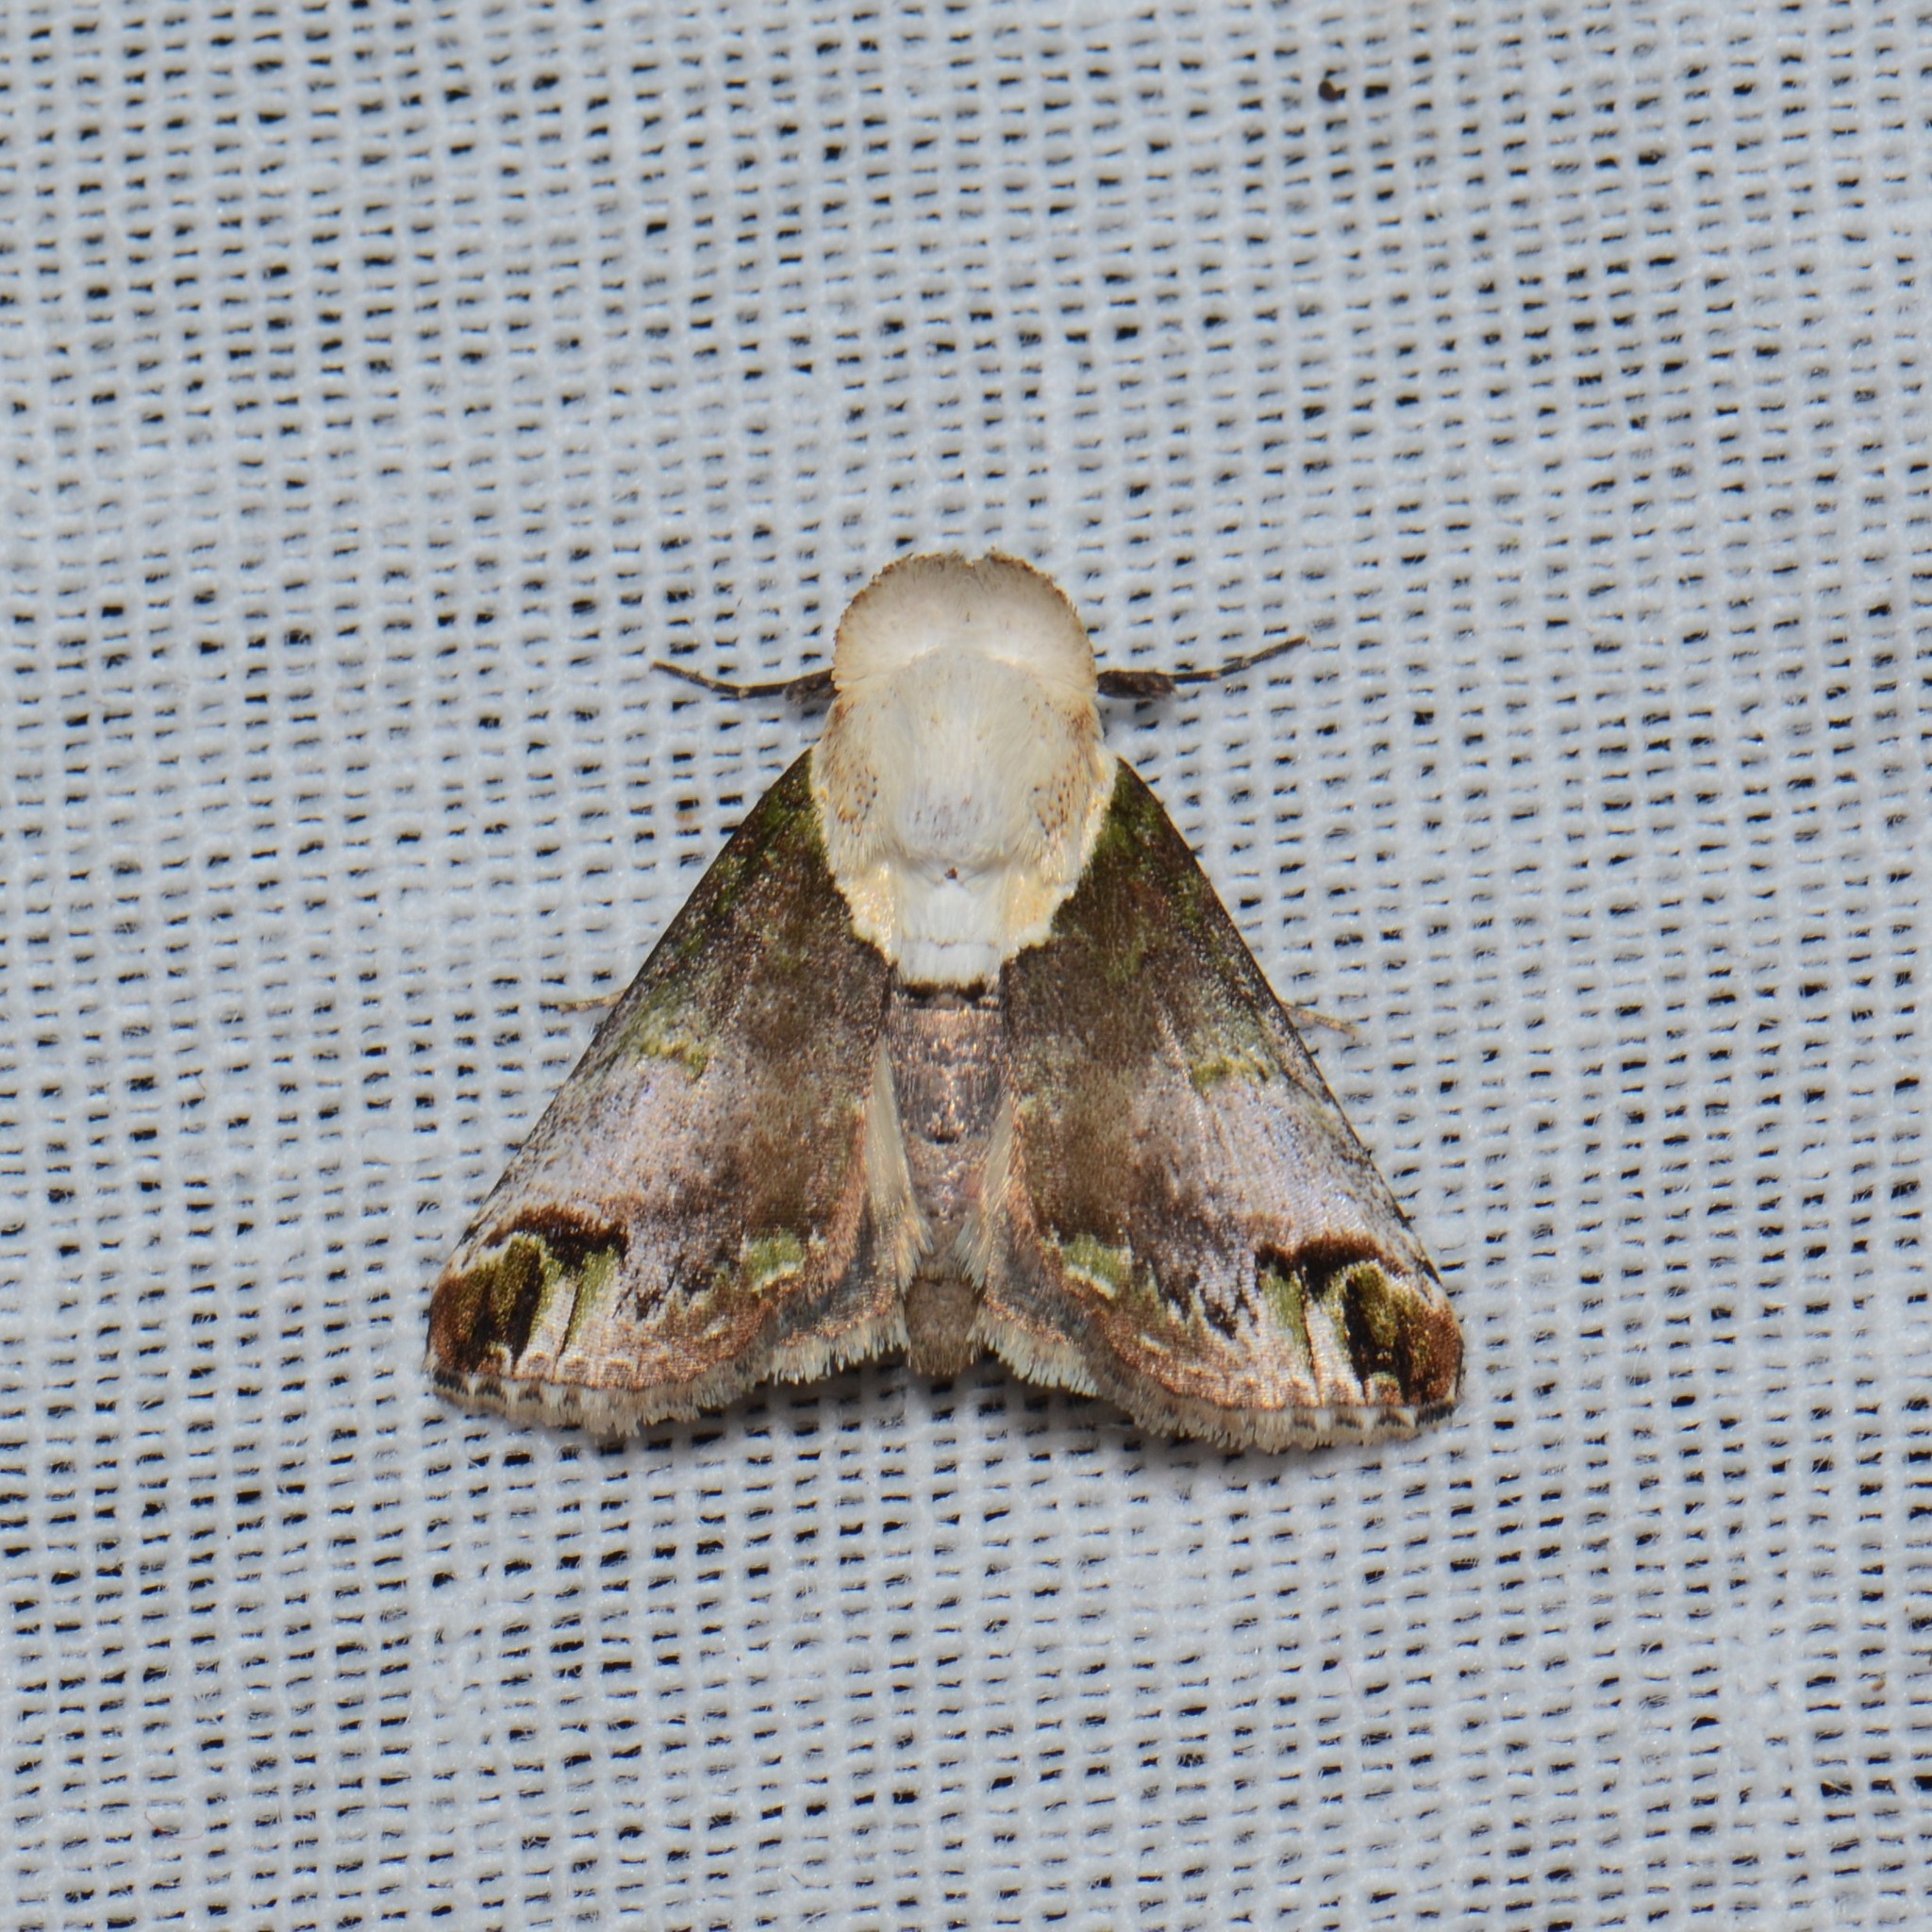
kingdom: Animalia
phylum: Arthropoda
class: Insecta
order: Lepidoptera
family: Nolidae
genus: Risoba
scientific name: Risoba prominens
